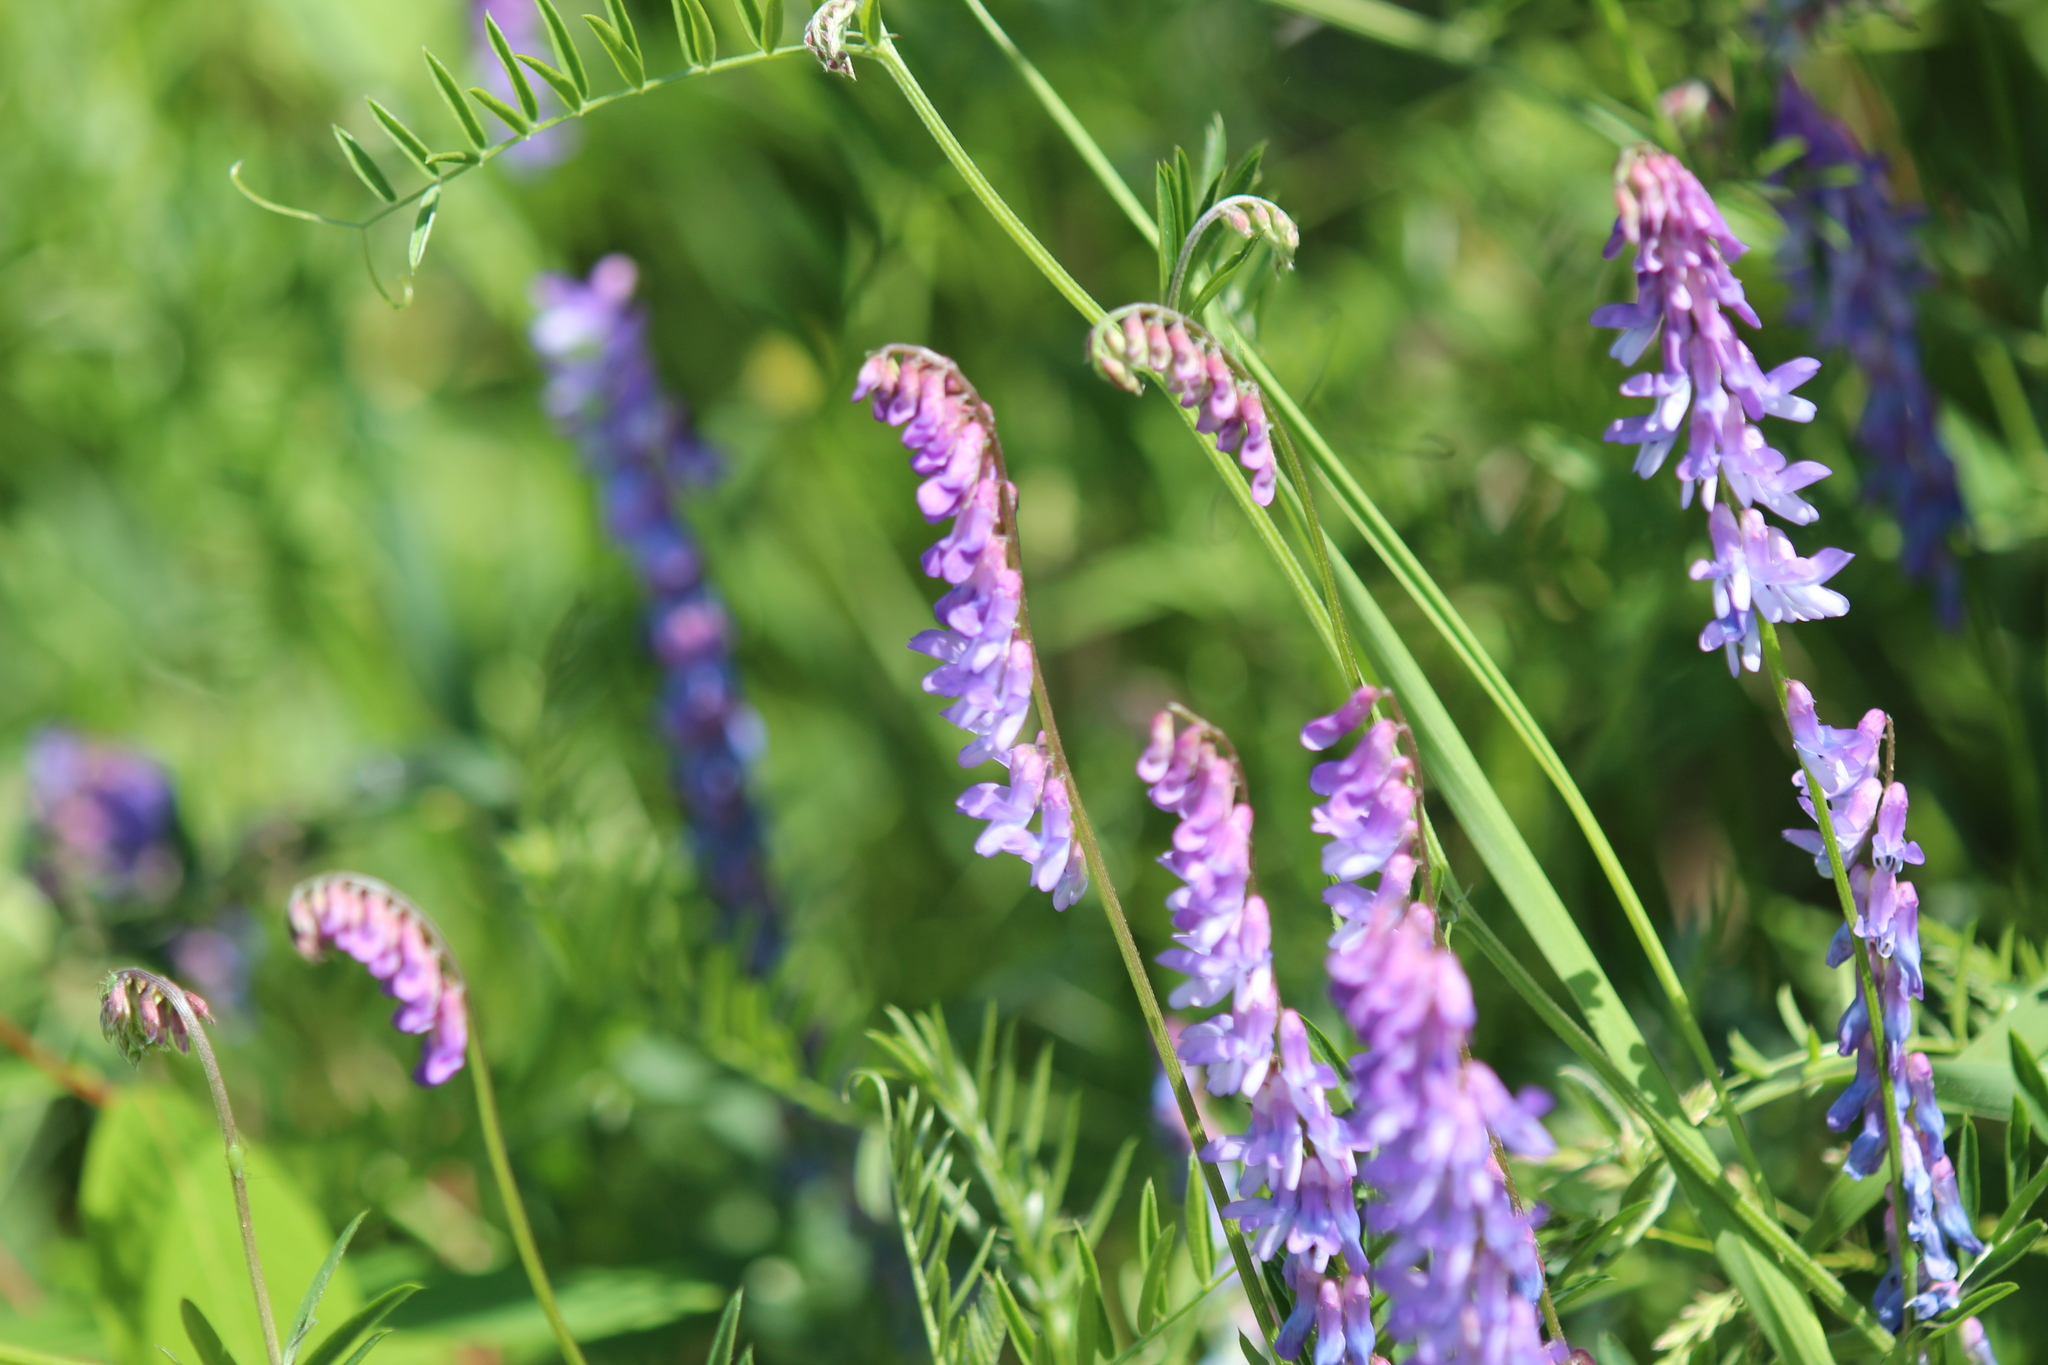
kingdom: Plantae
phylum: Tracheophyta
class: Magnoliopsida
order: Fabales
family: Fabaceae
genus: Vicia
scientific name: Vicia cracca
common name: Bird vetch
